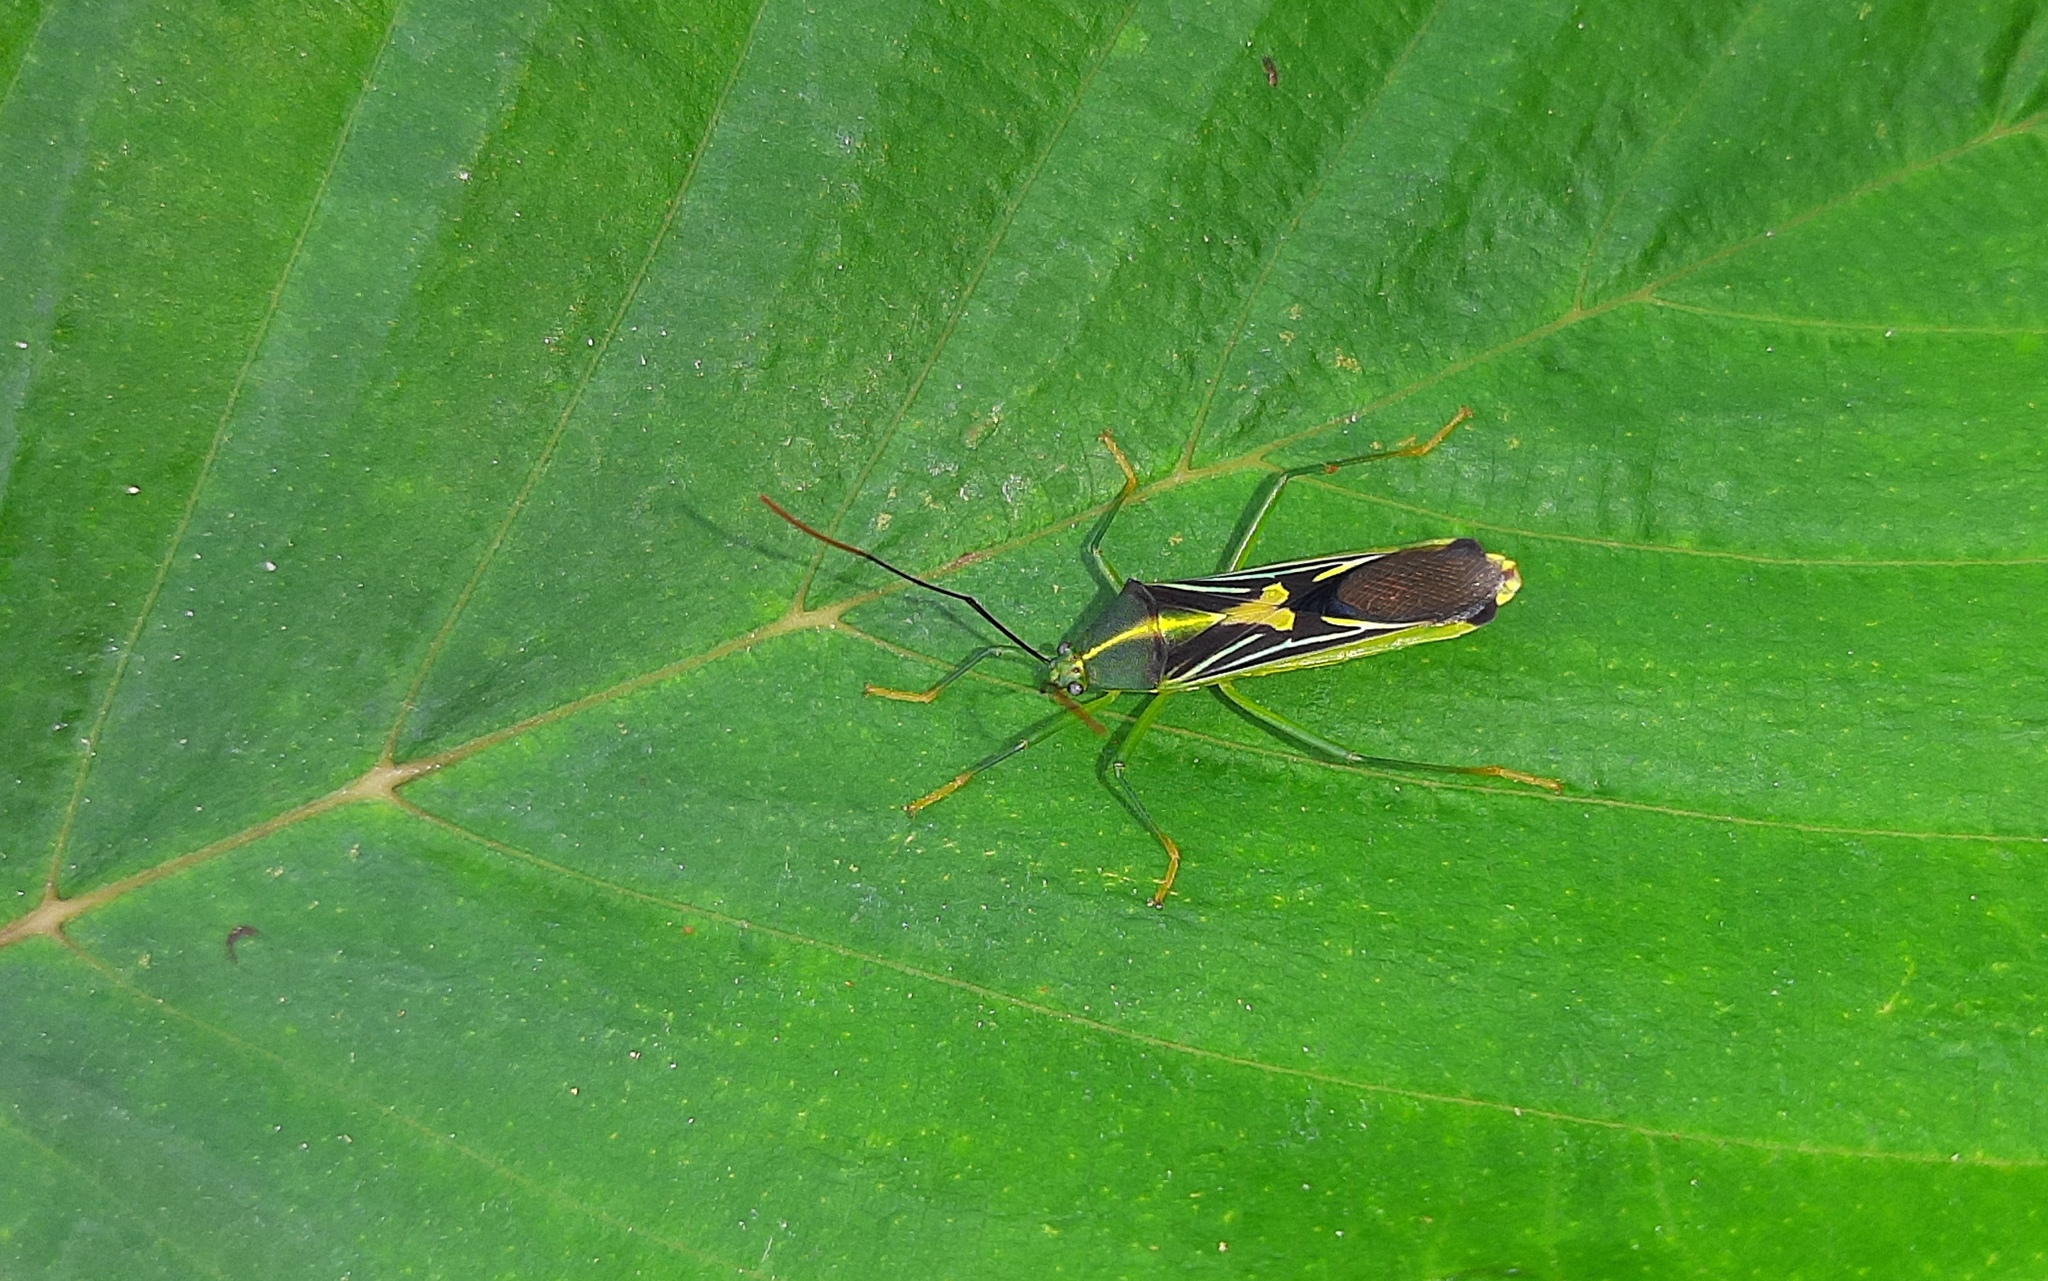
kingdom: Animalia
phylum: Arthropoda
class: Insecta
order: Hemiptera
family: Coreidae
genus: Cnemomis
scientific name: Cnemomis gracilis
